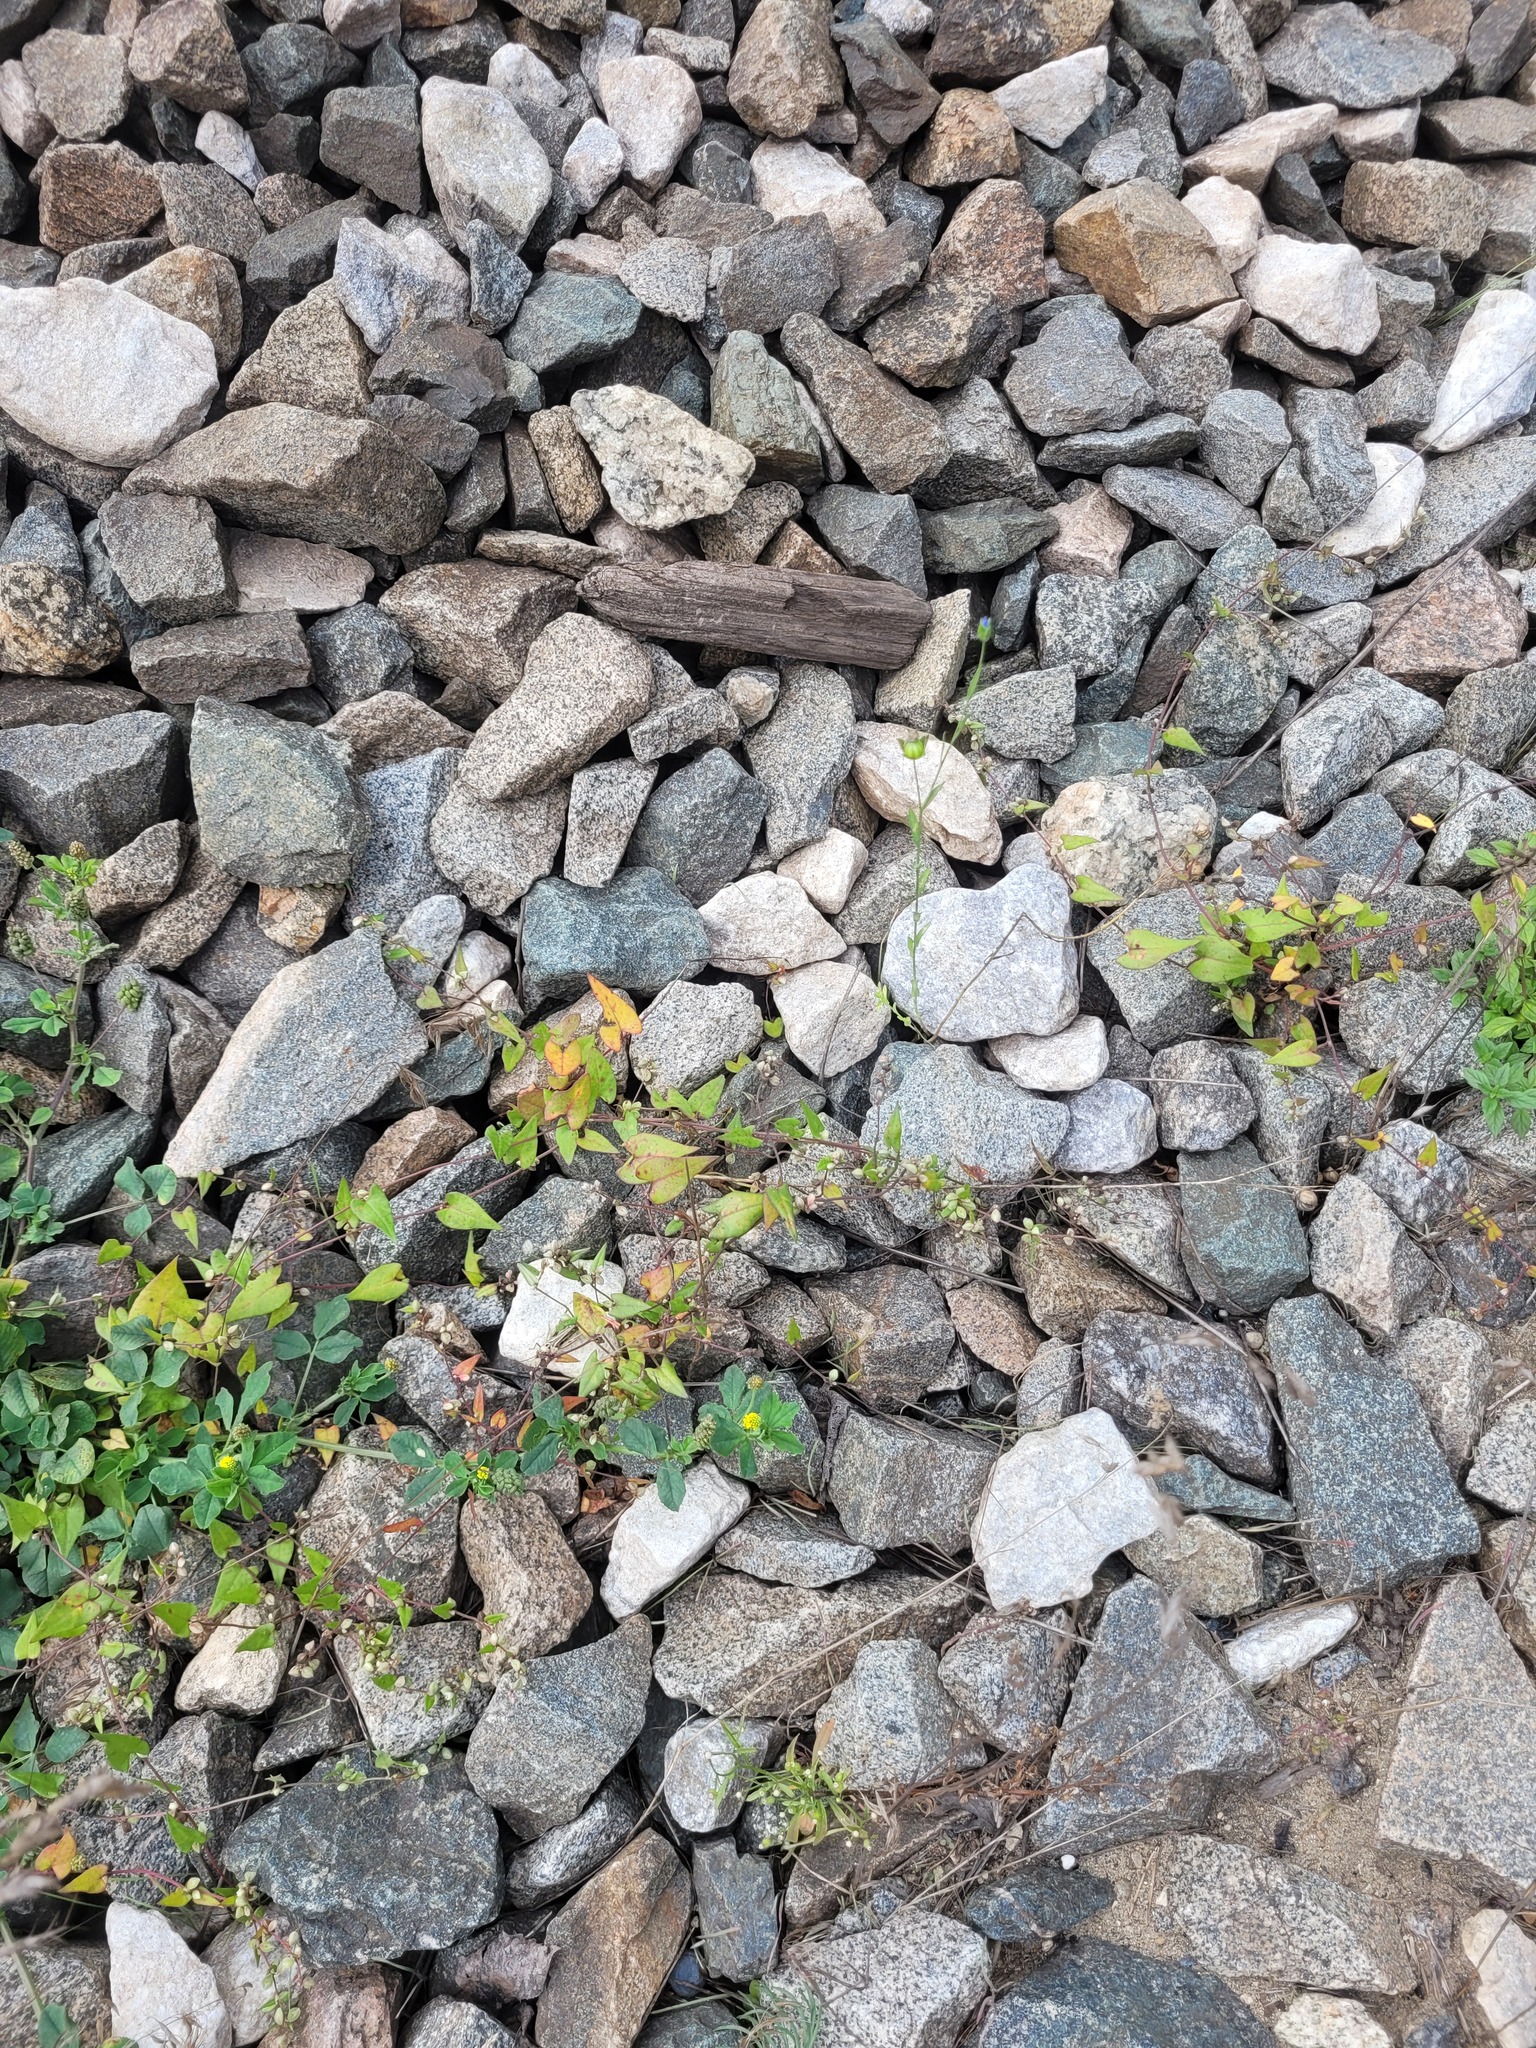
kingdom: Plantae
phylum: Tracheophyta
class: Magnoliopsida
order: Caryophyllales
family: Polygonaceae
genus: Fallopia
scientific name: Fallopia convolvulus
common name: Black bindweed
